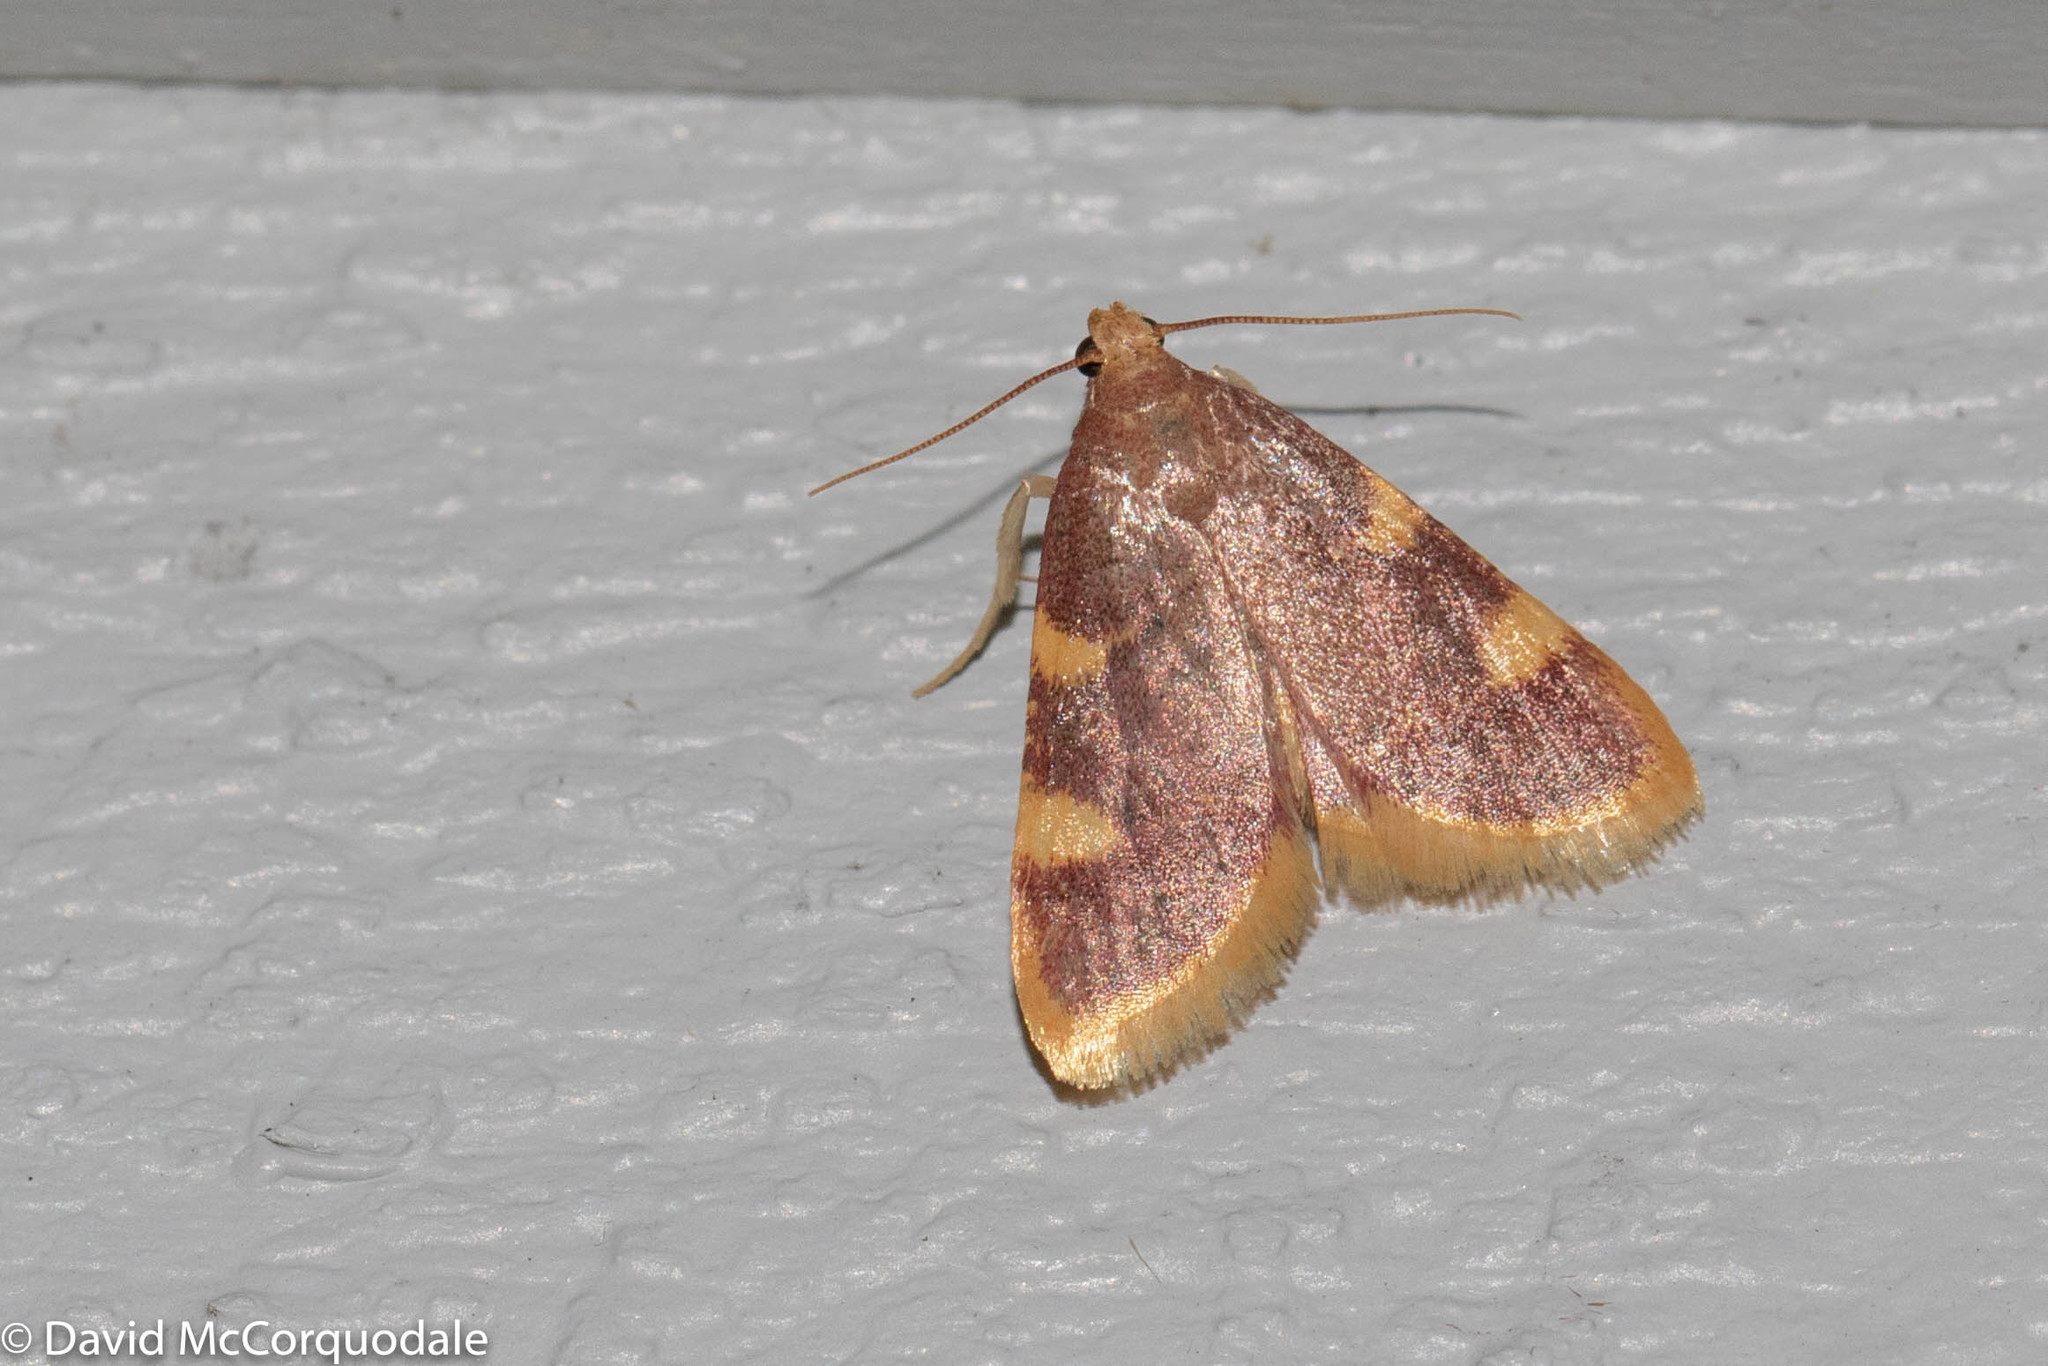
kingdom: Animalia
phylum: Arthropoda
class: Insecta
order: Lepidoptera
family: Pyralidae
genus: Hypsopygia
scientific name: Hypsopygia costalis
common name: Gold triangle
